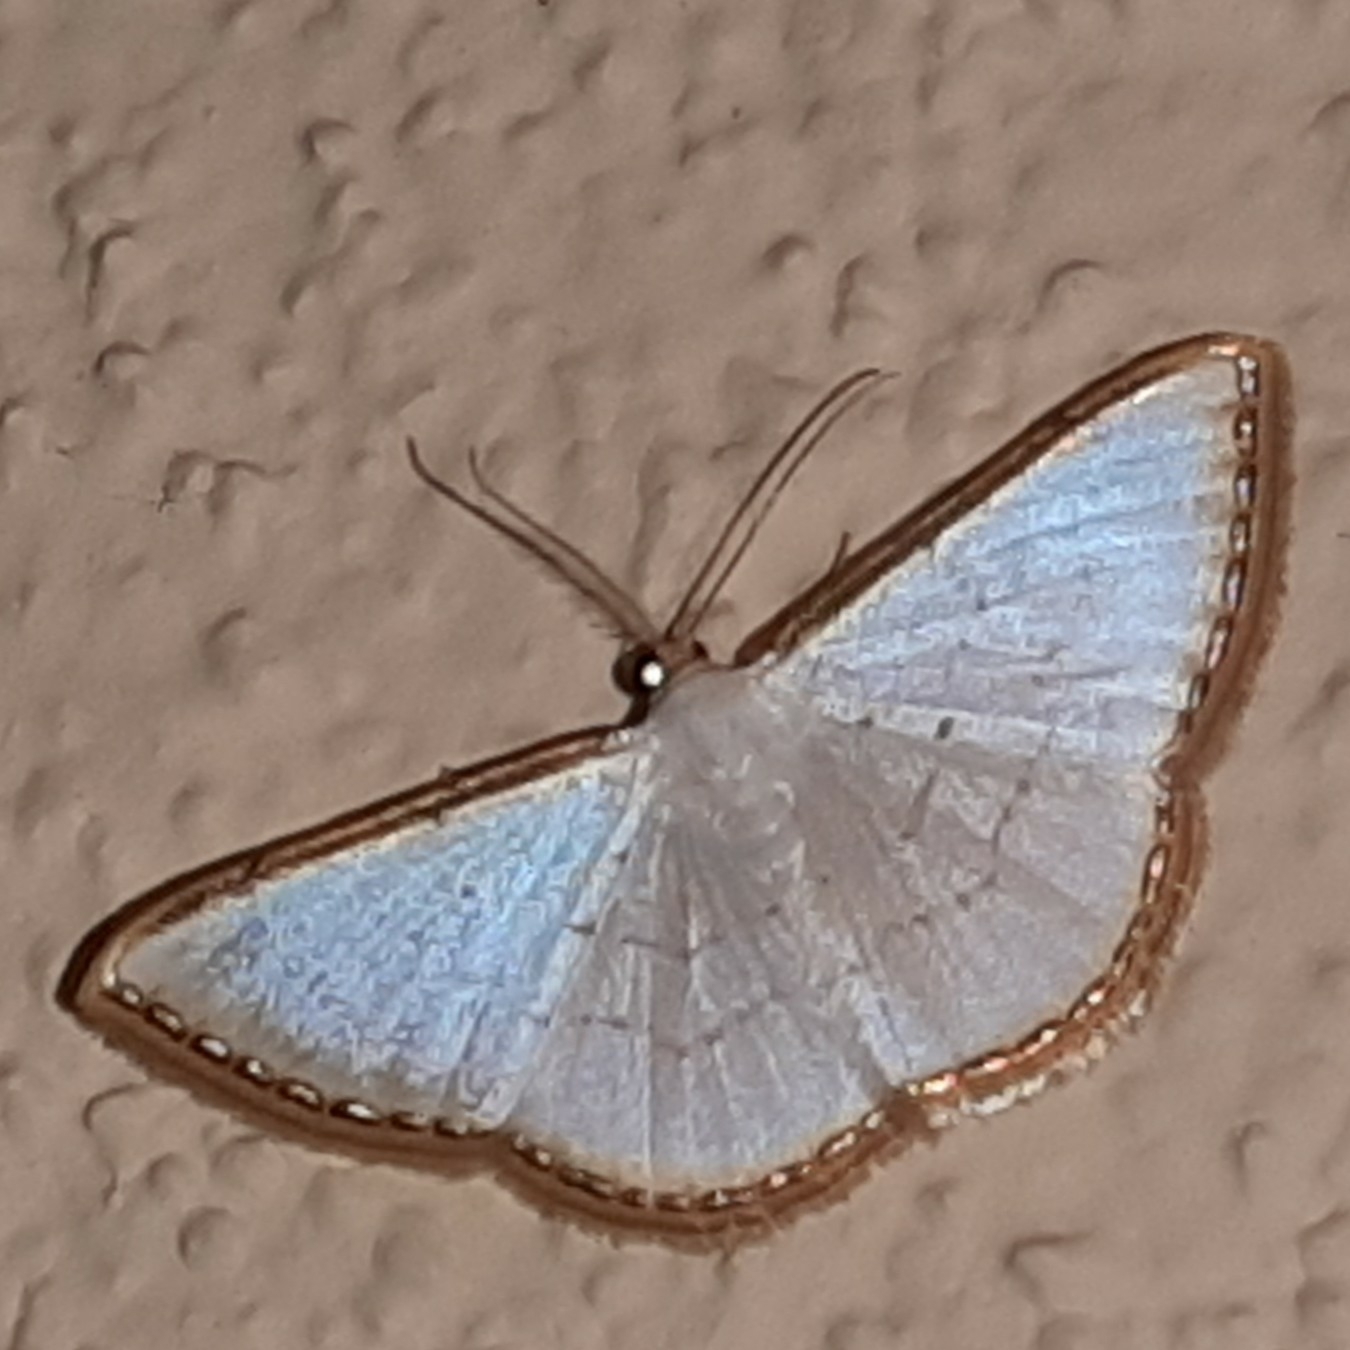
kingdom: Animalia
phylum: Arthropoda
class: Insecta
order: Lepidoptera
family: Geometridae
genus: Leuciris
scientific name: Leuciris fimbriaria
